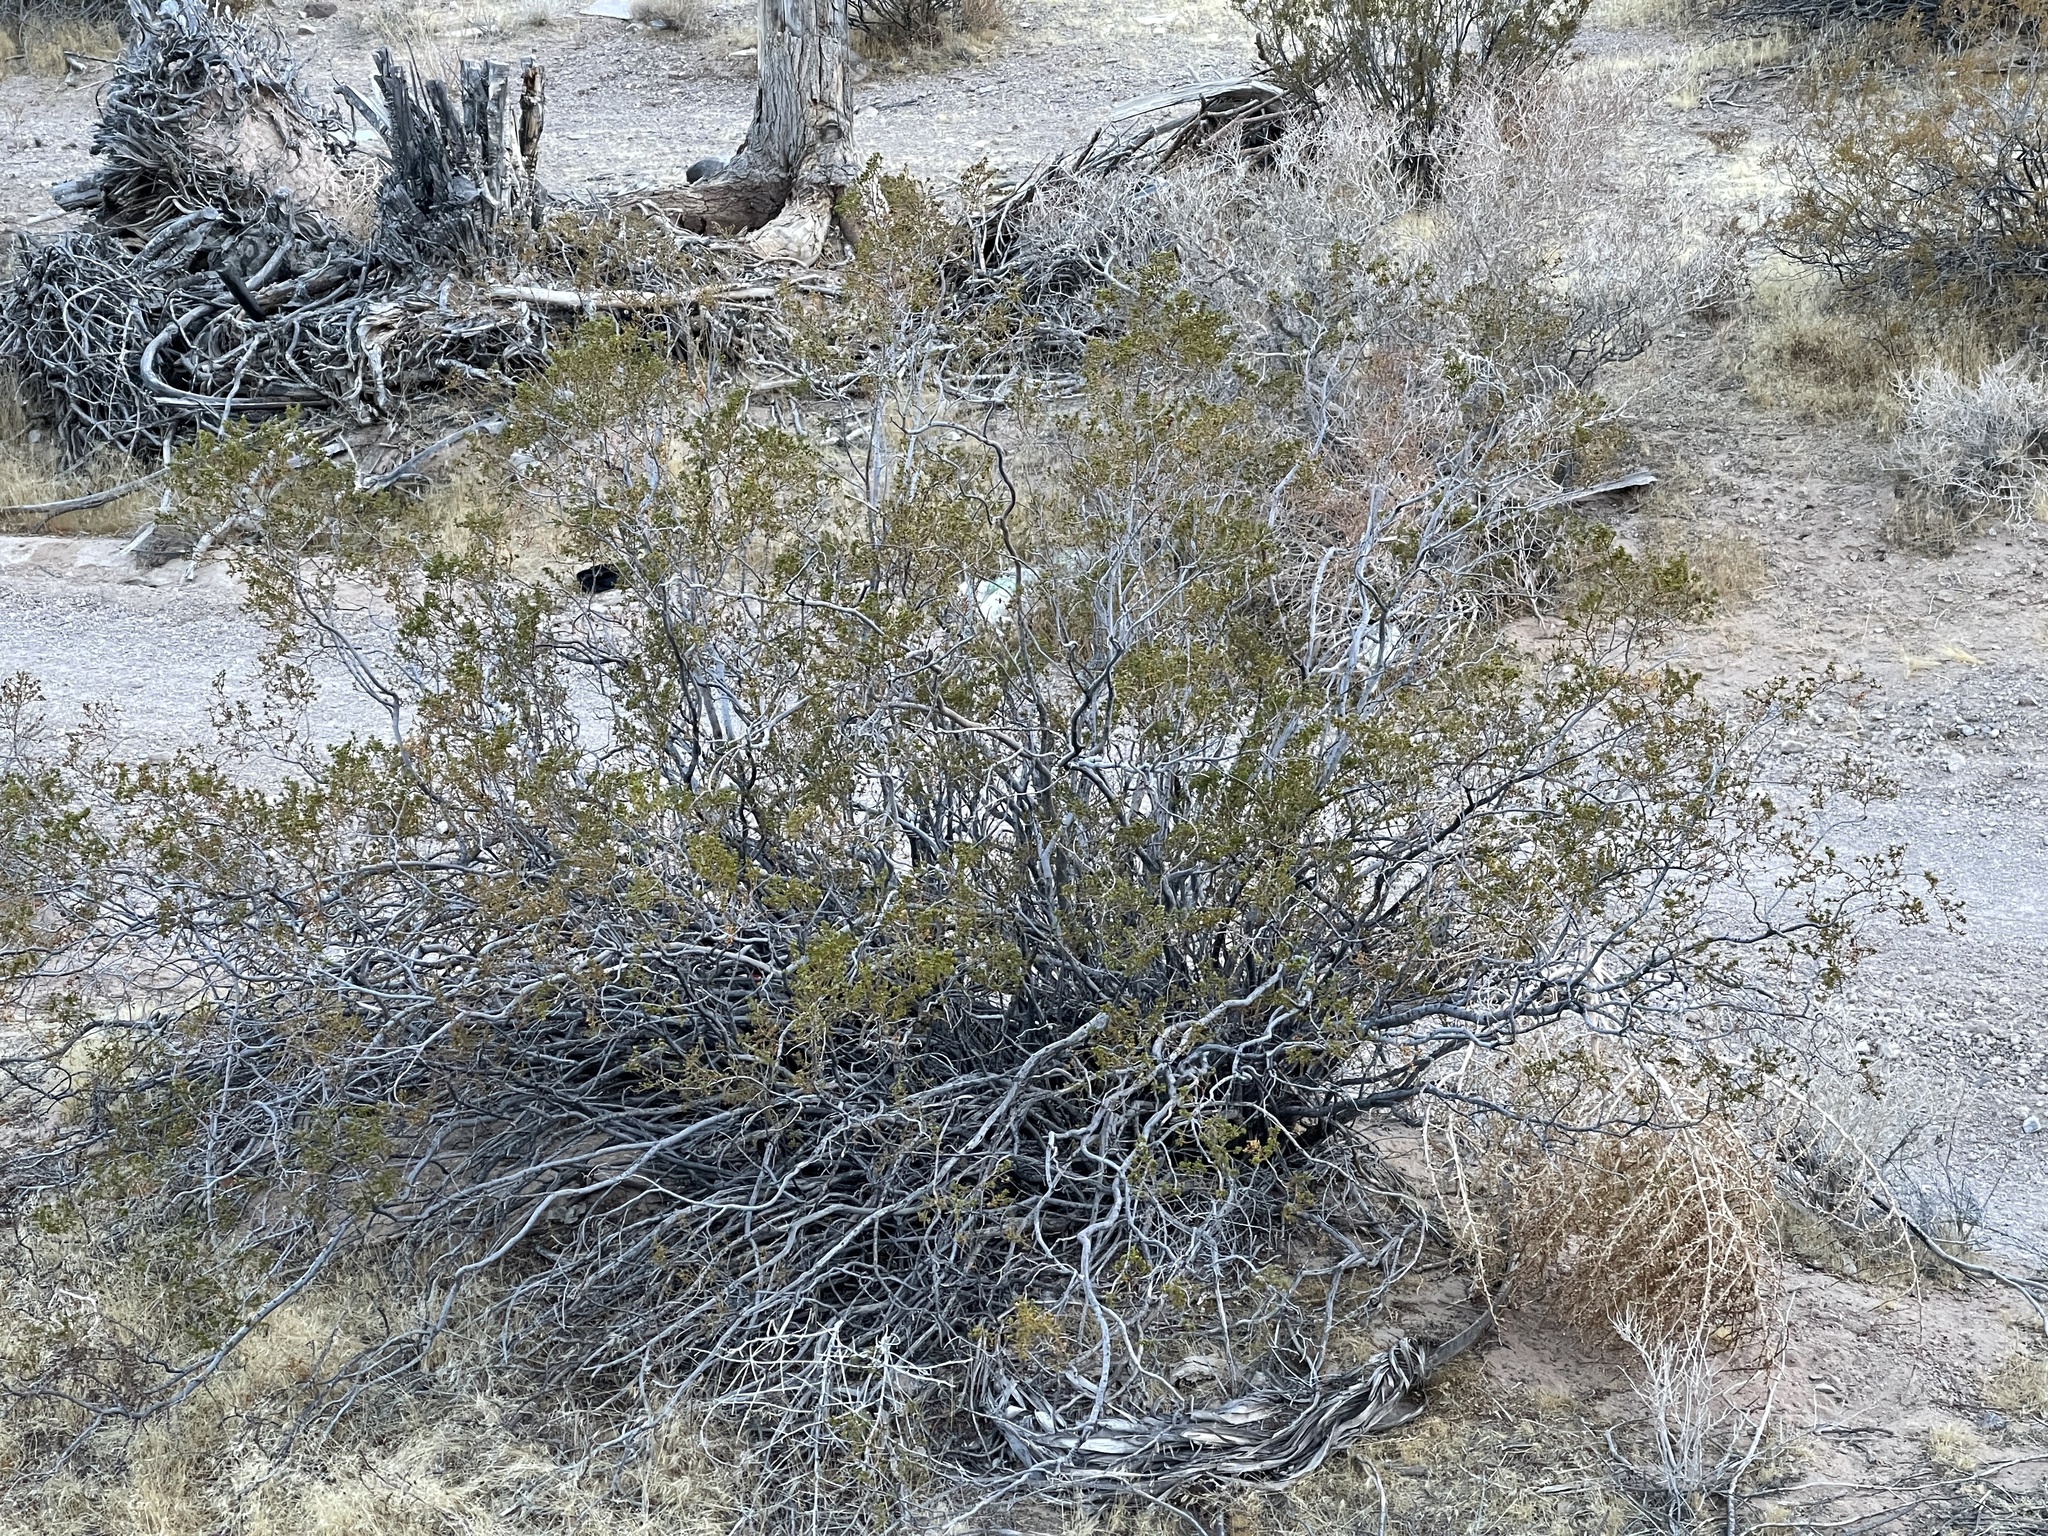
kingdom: Plantae
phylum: Tracheophyta
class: Magnoliopsida
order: Zygophyllales
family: Zygophyllaceae
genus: Larrea
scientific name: Larrea tridentata
